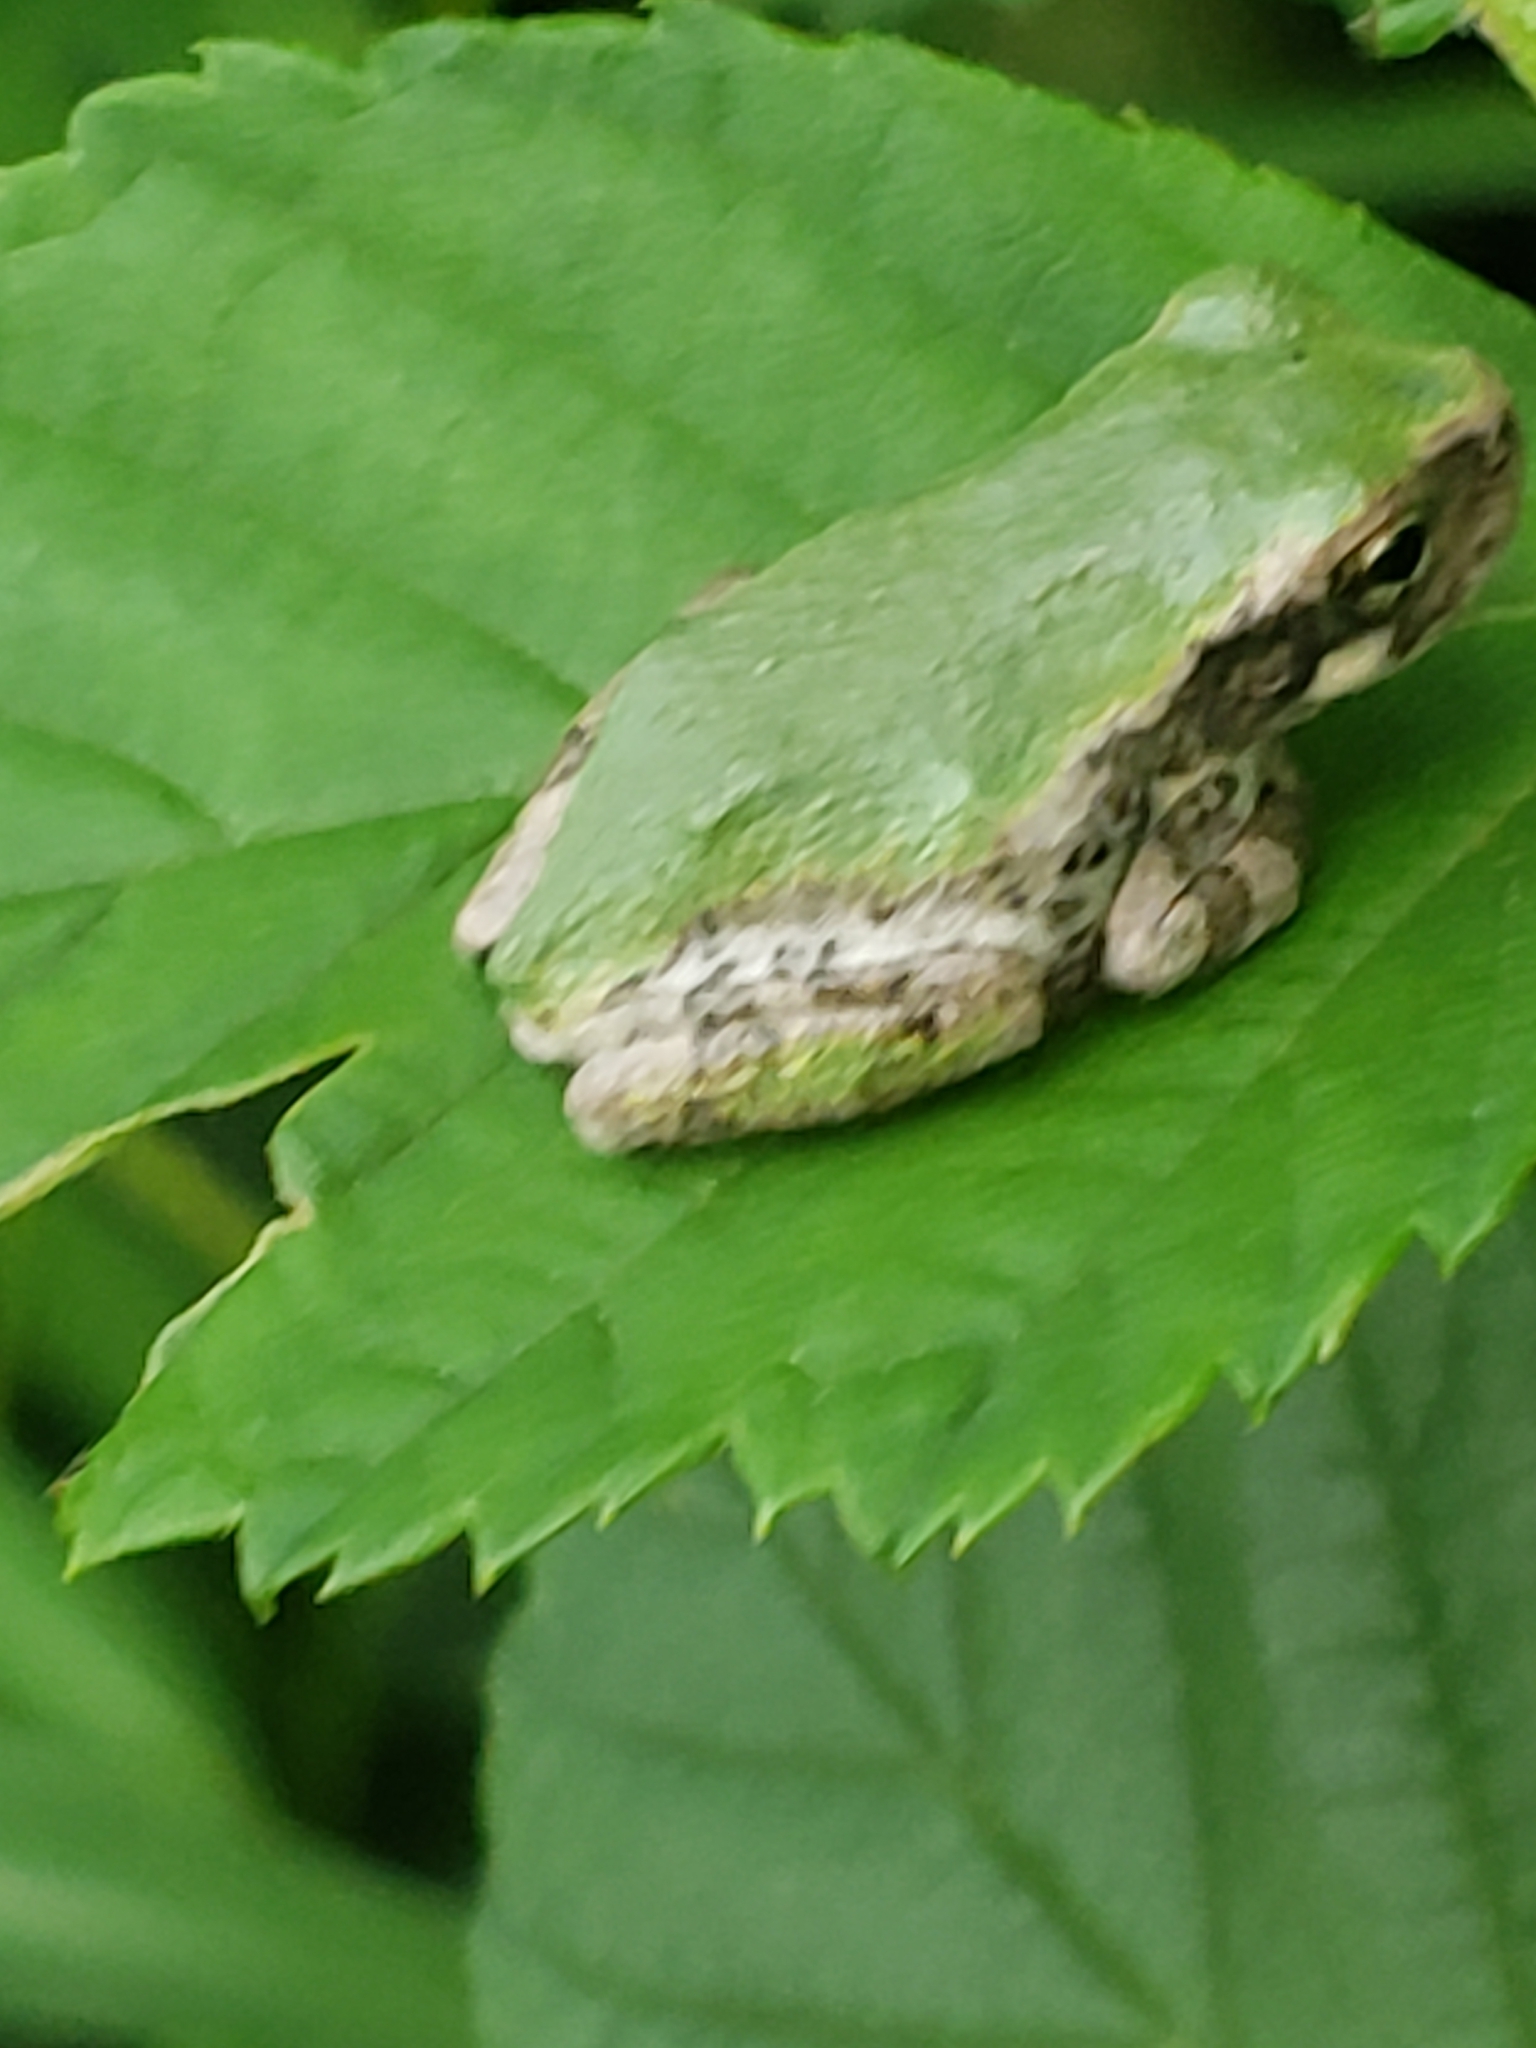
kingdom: Animalia
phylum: Chordata
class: Amphibia
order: Anura
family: Hylidae
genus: Hyla
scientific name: Hyla
